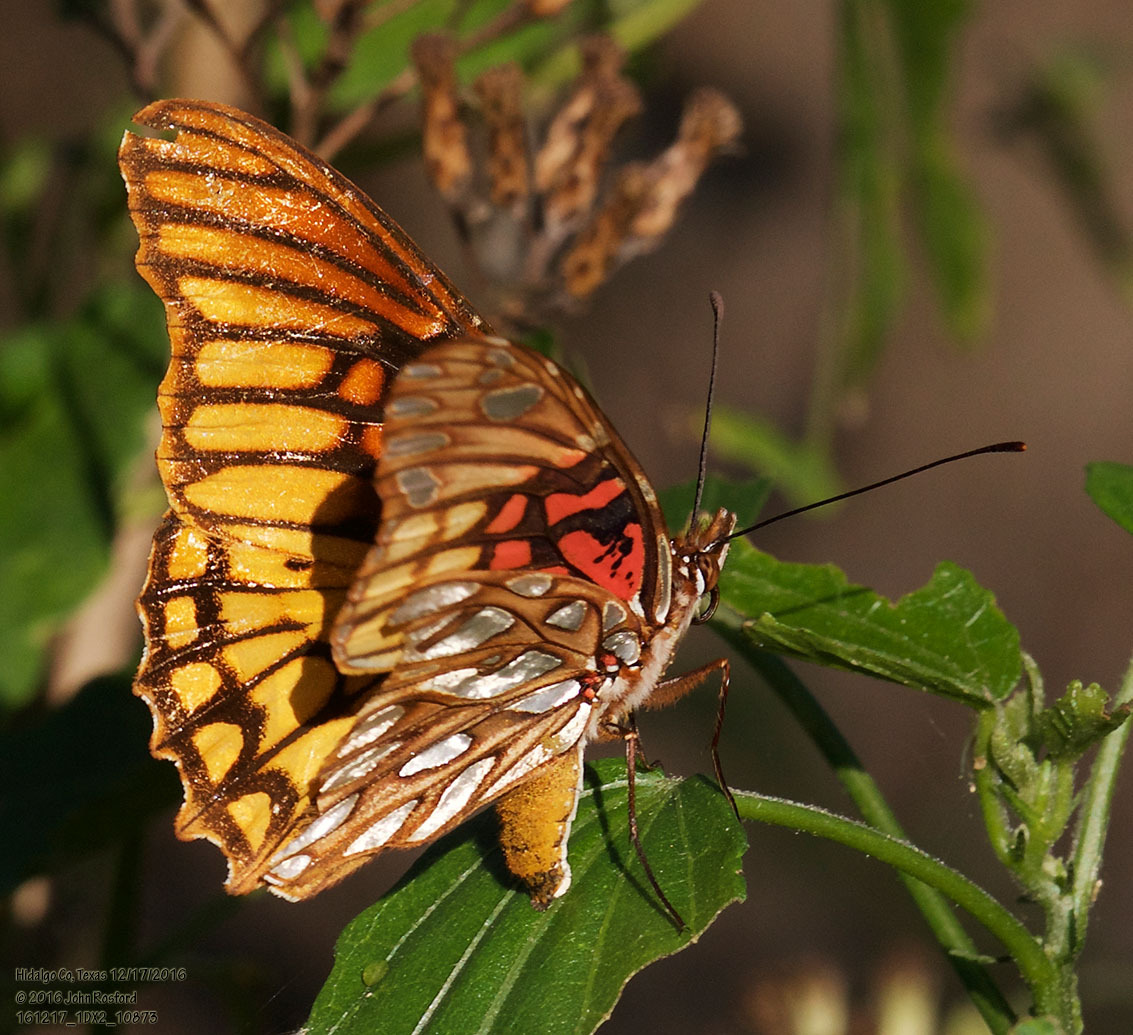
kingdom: Animalia
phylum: Arthropoda
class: Insecta
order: Lepidoptera
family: Nymphalidae
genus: Dione
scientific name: Dione moneta
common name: Mexican silverspot
